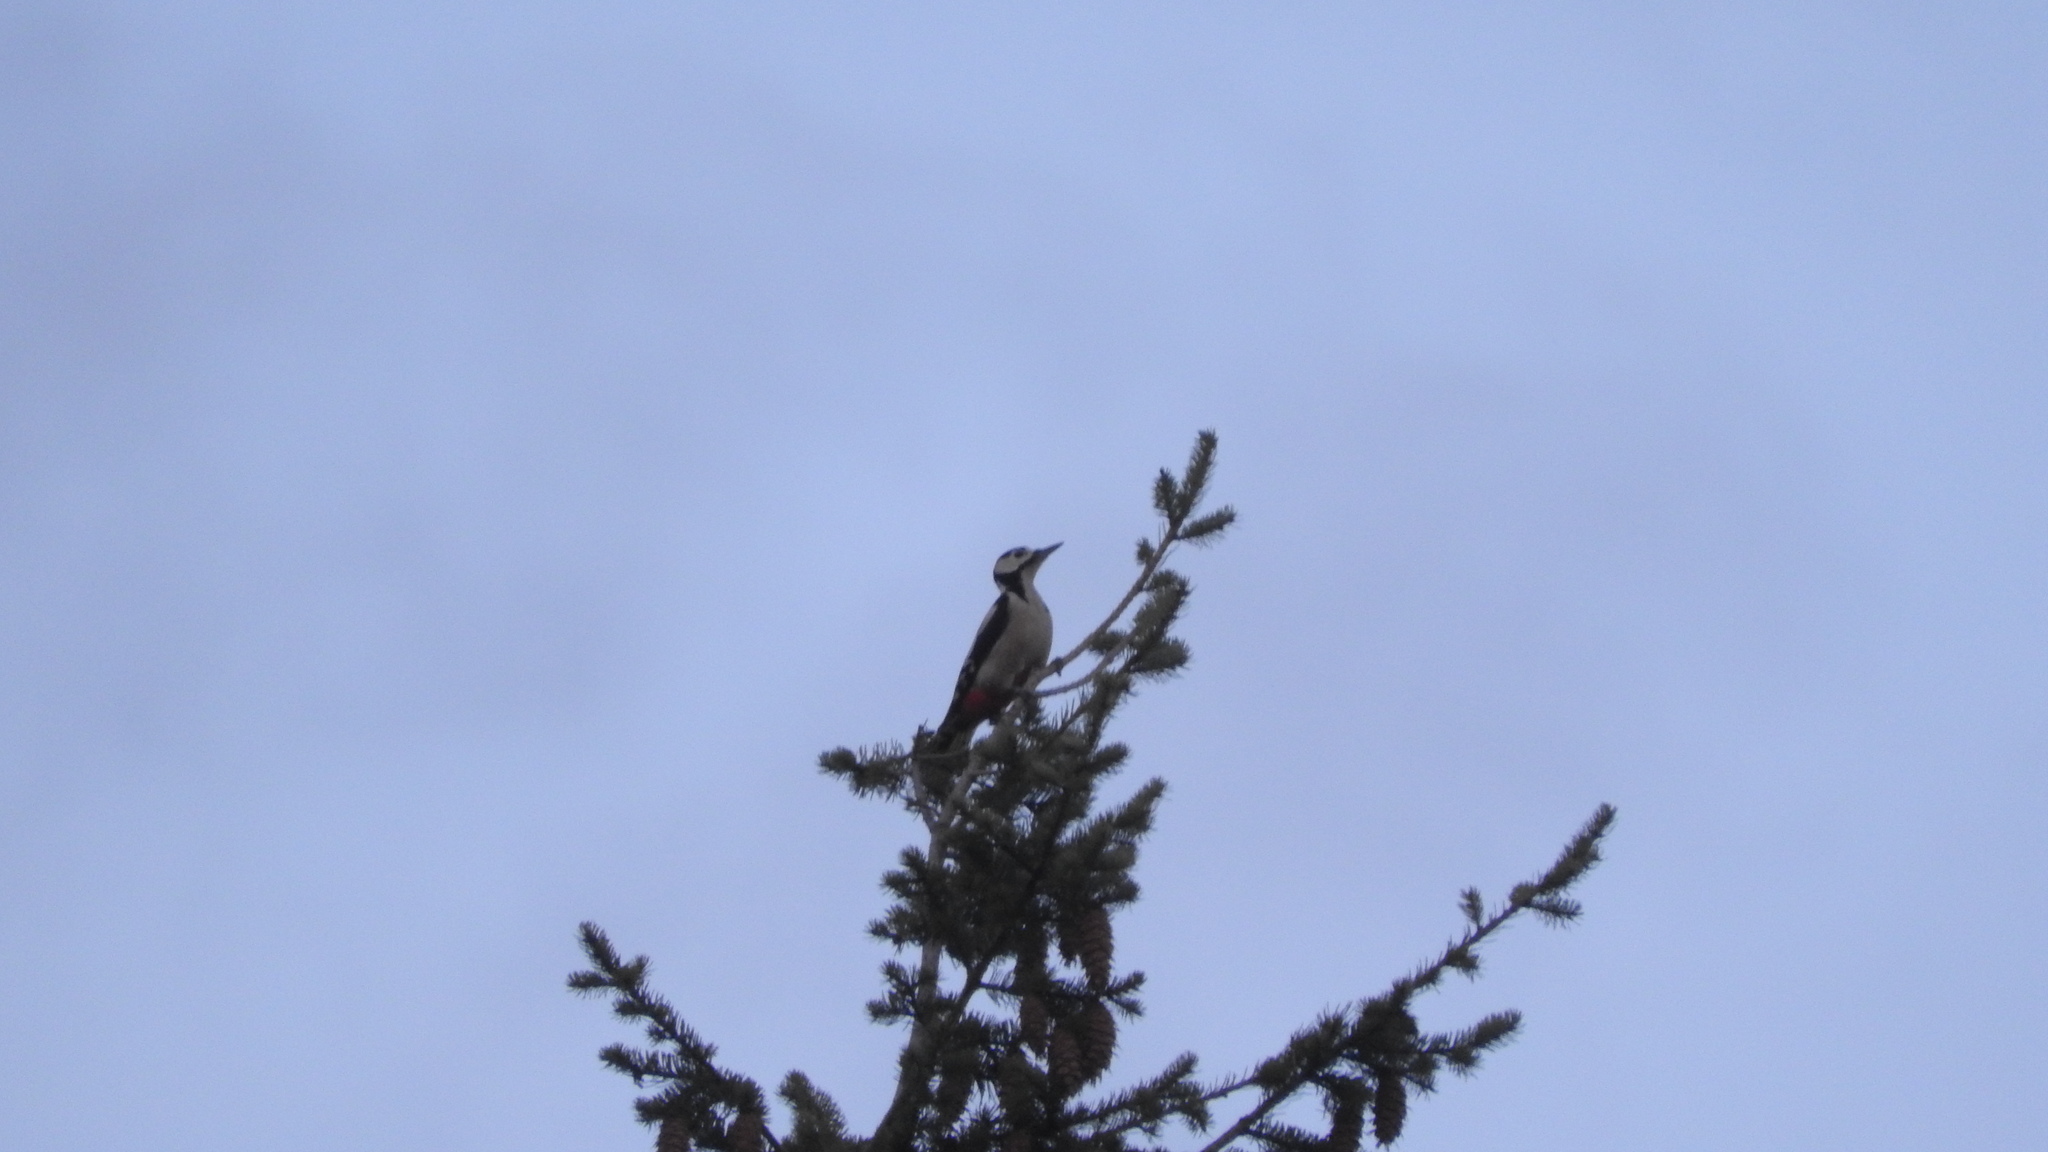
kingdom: Animalia
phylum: Chordata
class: Aves
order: Piciformes
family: Picidae
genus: Dendrocopos
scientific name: Dendrocopos major
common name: Great spotted woodpecker
